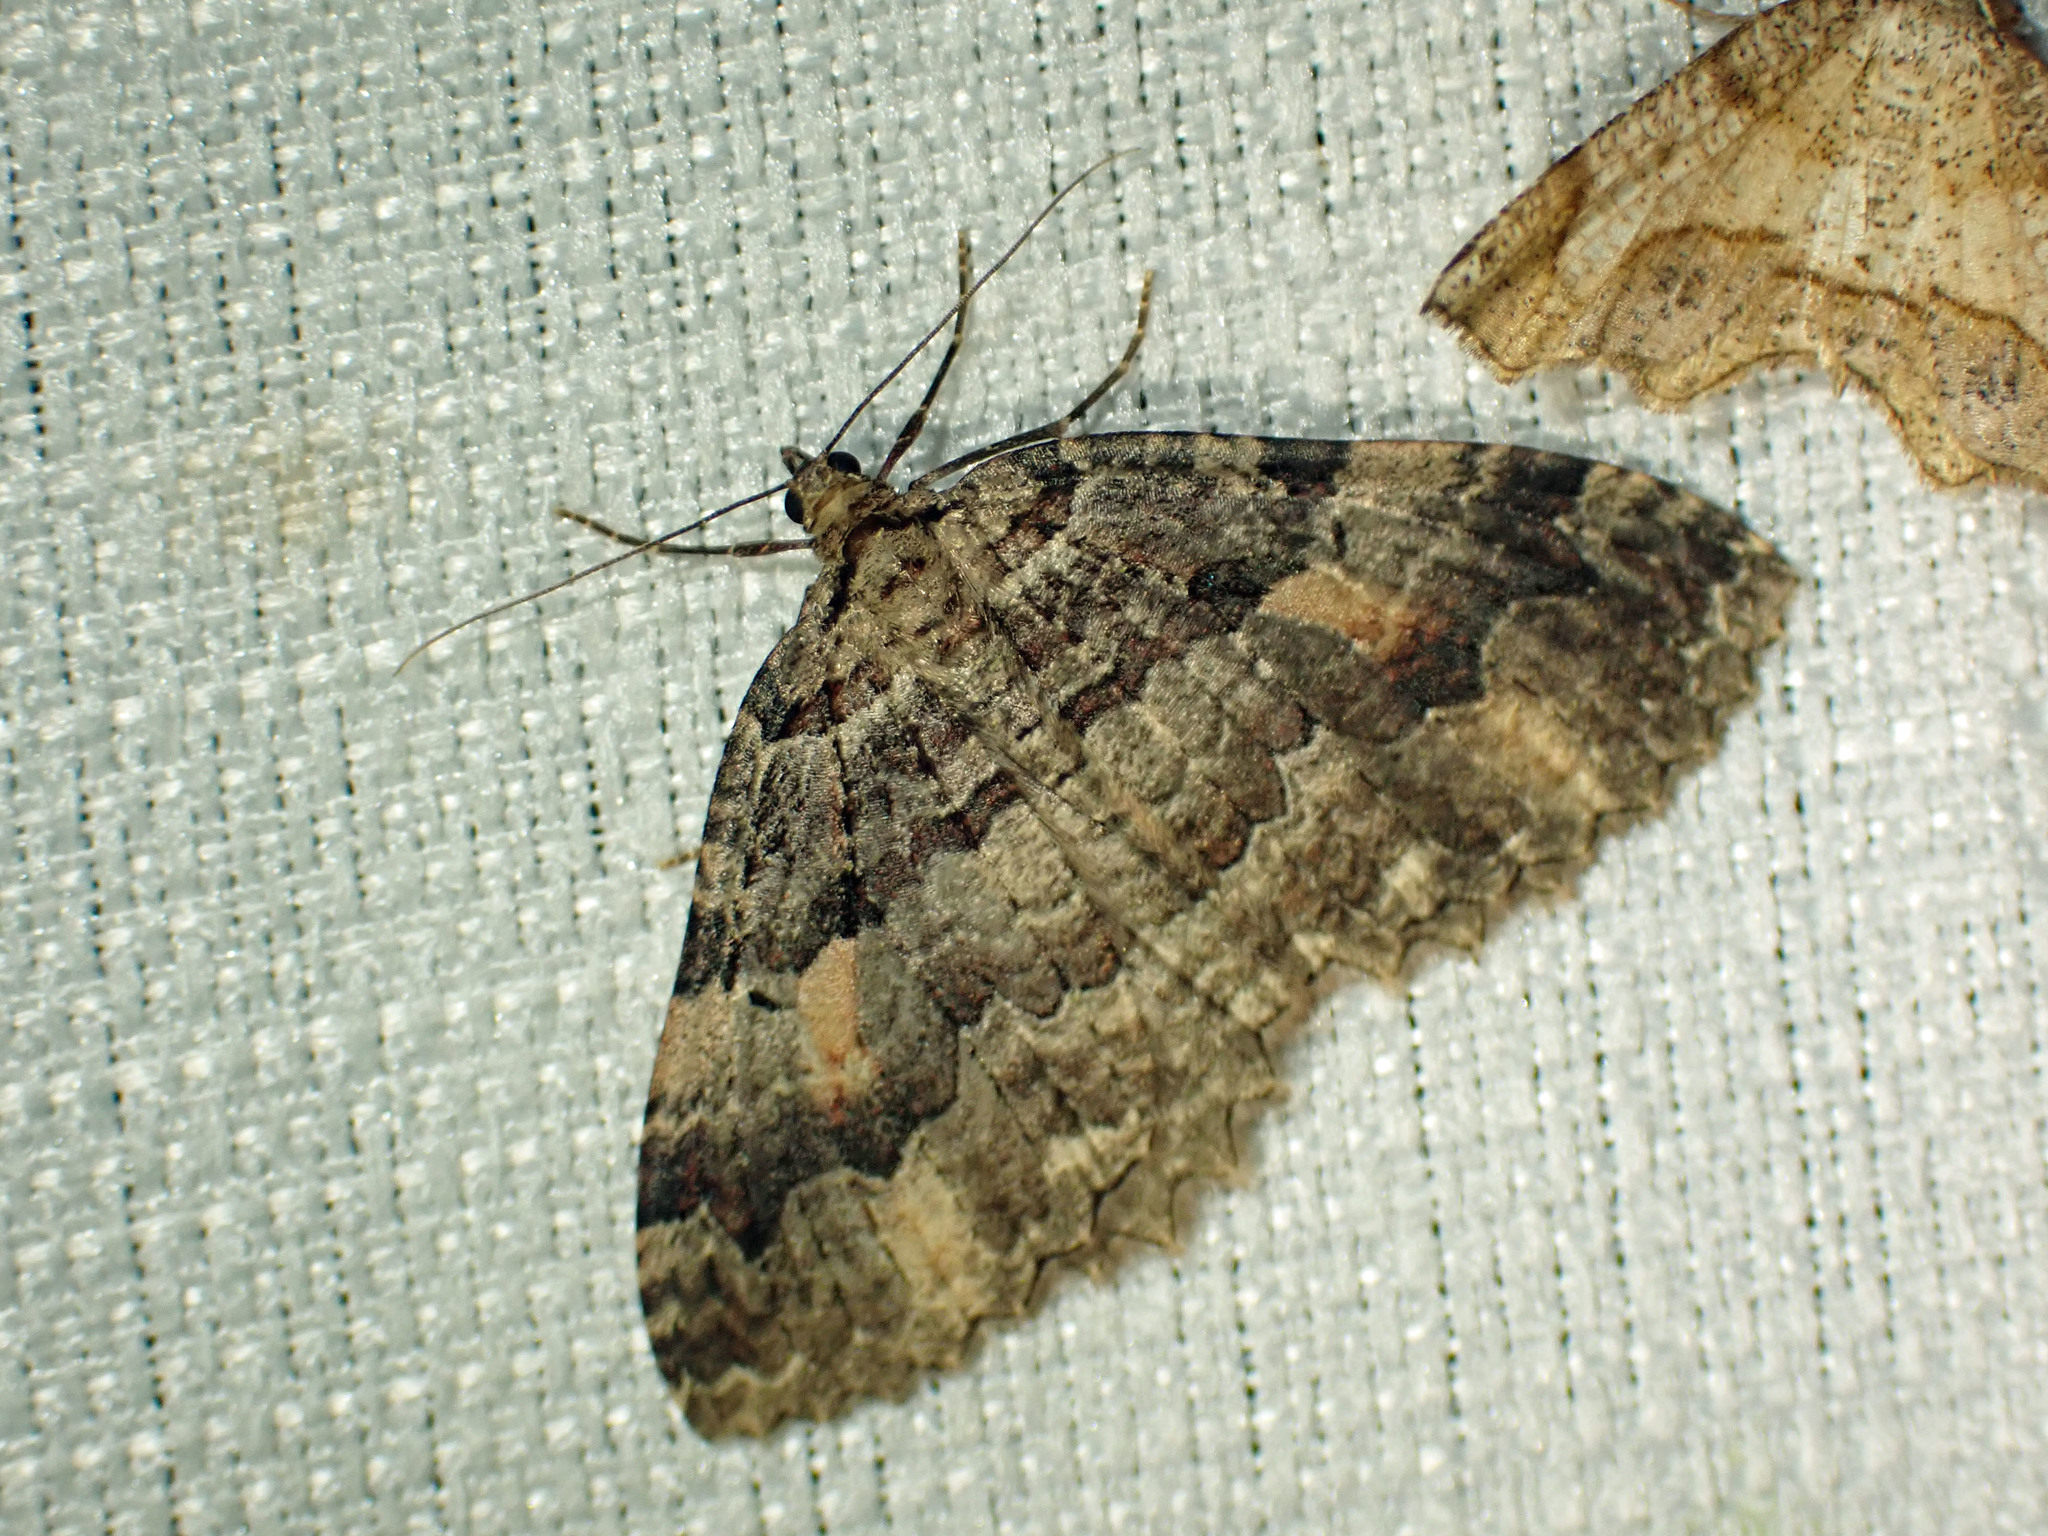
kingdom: Animalia
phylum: Arthropoda
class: Insecta
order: Lepidoptera
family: Geometridae
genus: Triphosa
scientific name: Triphosa haesitata
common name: Tissue moth
